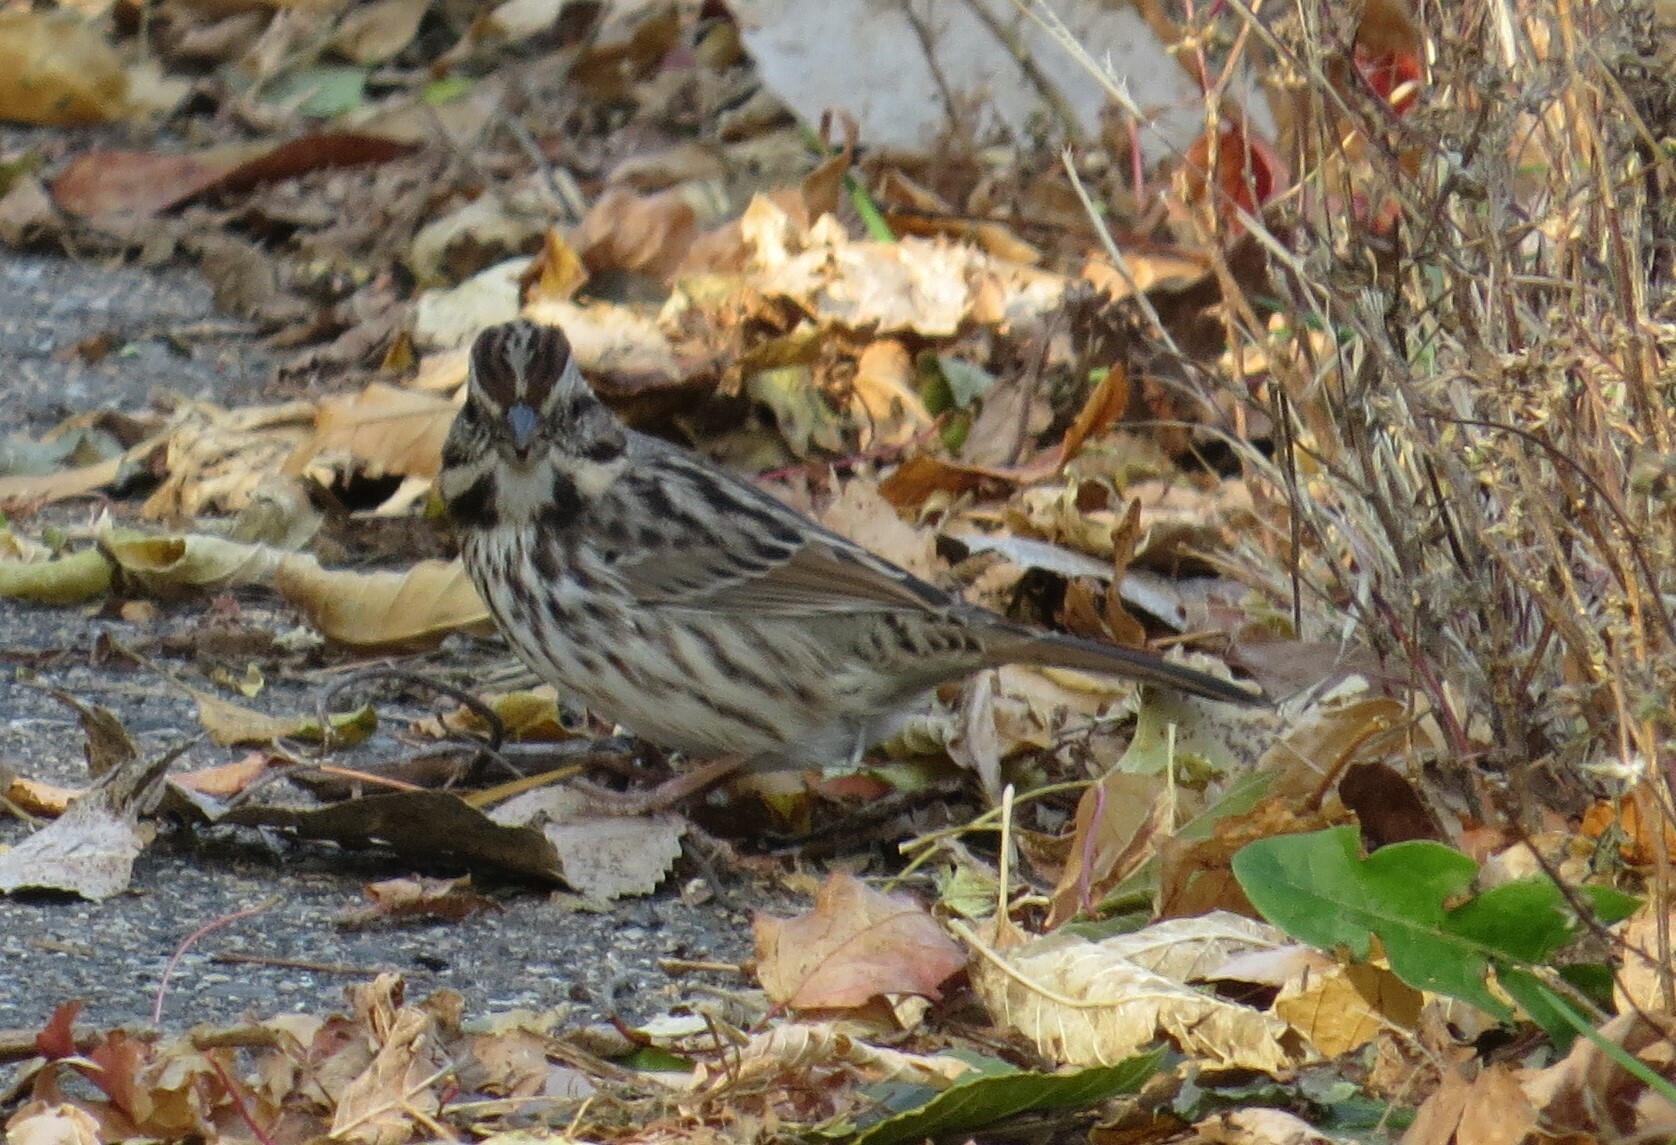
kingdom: Animalia
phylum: Chordata
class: Aves
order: Passeriformes
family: Passerellidae
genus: Melospiza
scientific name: Melospiza melodia
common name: Song sparrow
